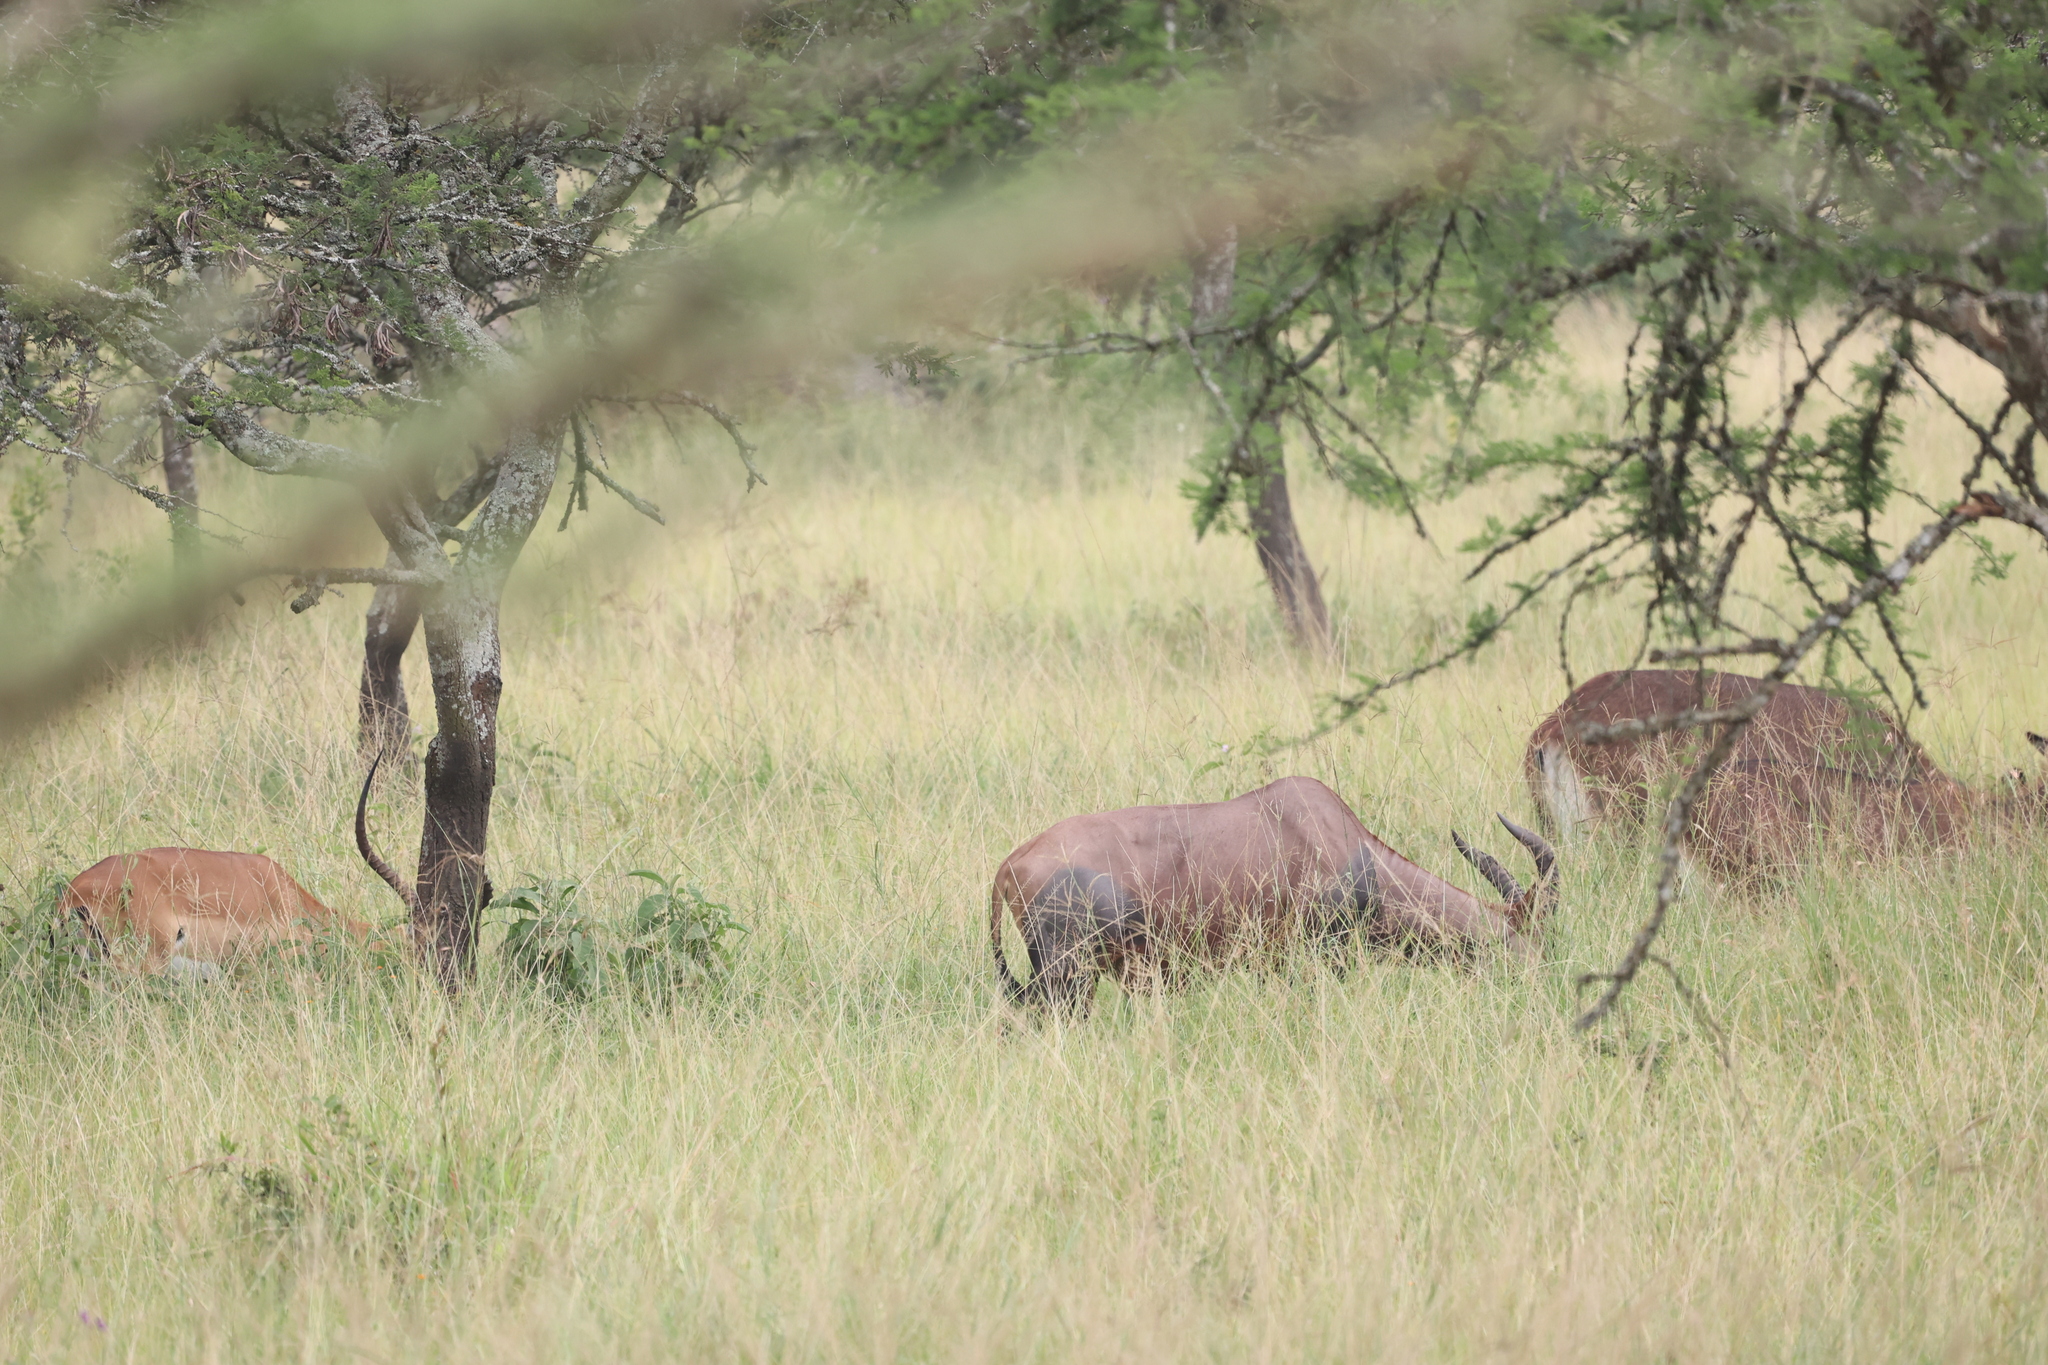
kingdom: Animalia
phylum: Chordata
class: Mammalia
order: Artiodactyla
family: Bovidae
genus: Aepyceros
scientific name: Aepyceros melampus
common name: Impala
